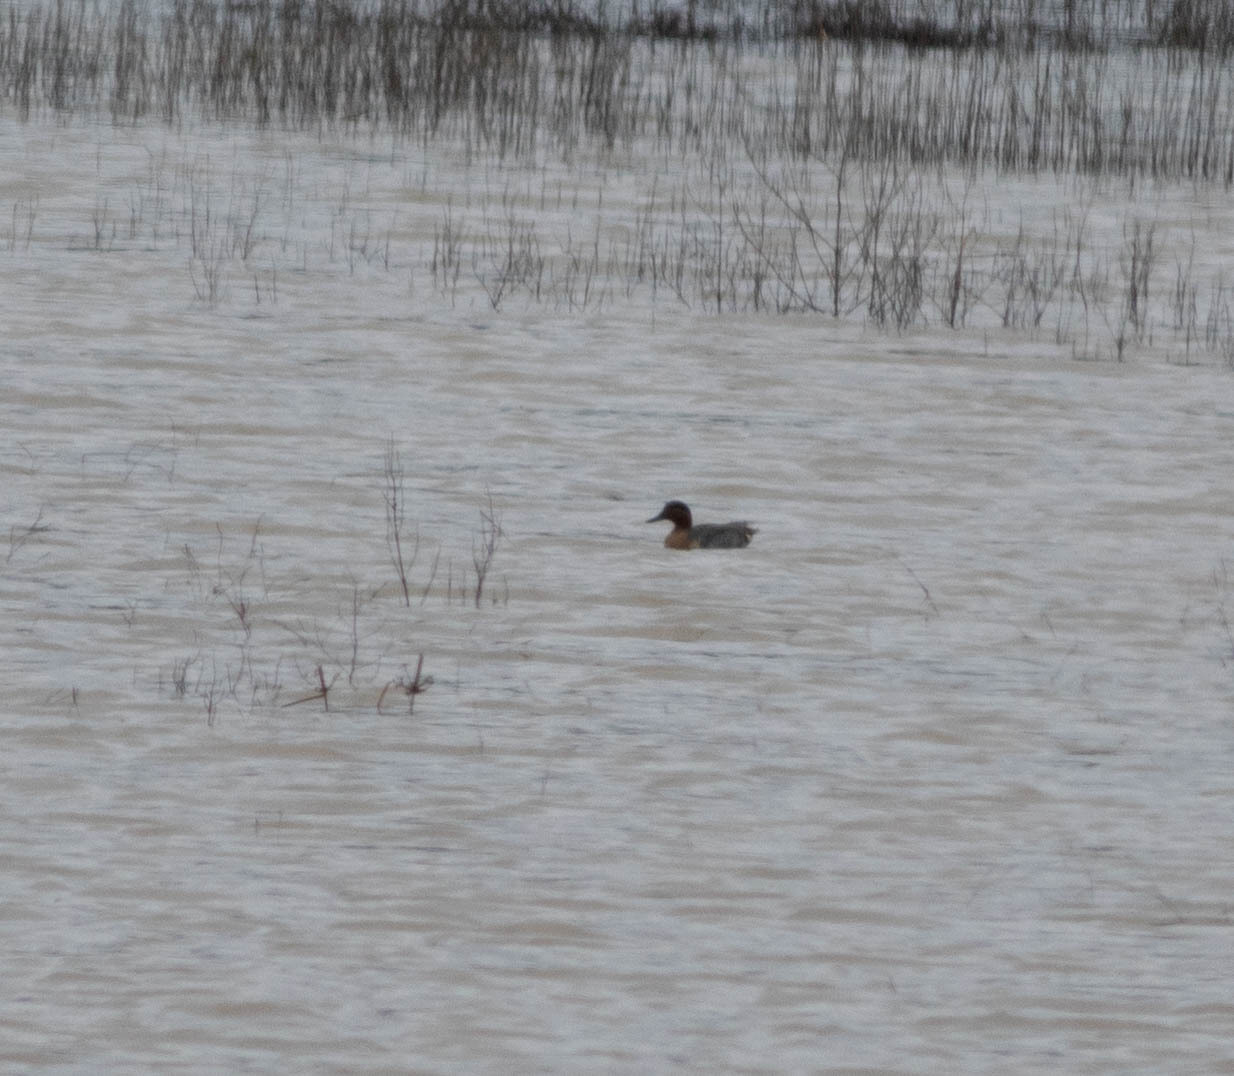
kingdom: Animalia
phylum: Chordata
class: Aves
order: Anseriformes
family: Anatidae
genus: Anas
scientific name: Anas crecca
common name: Eurasian teal
